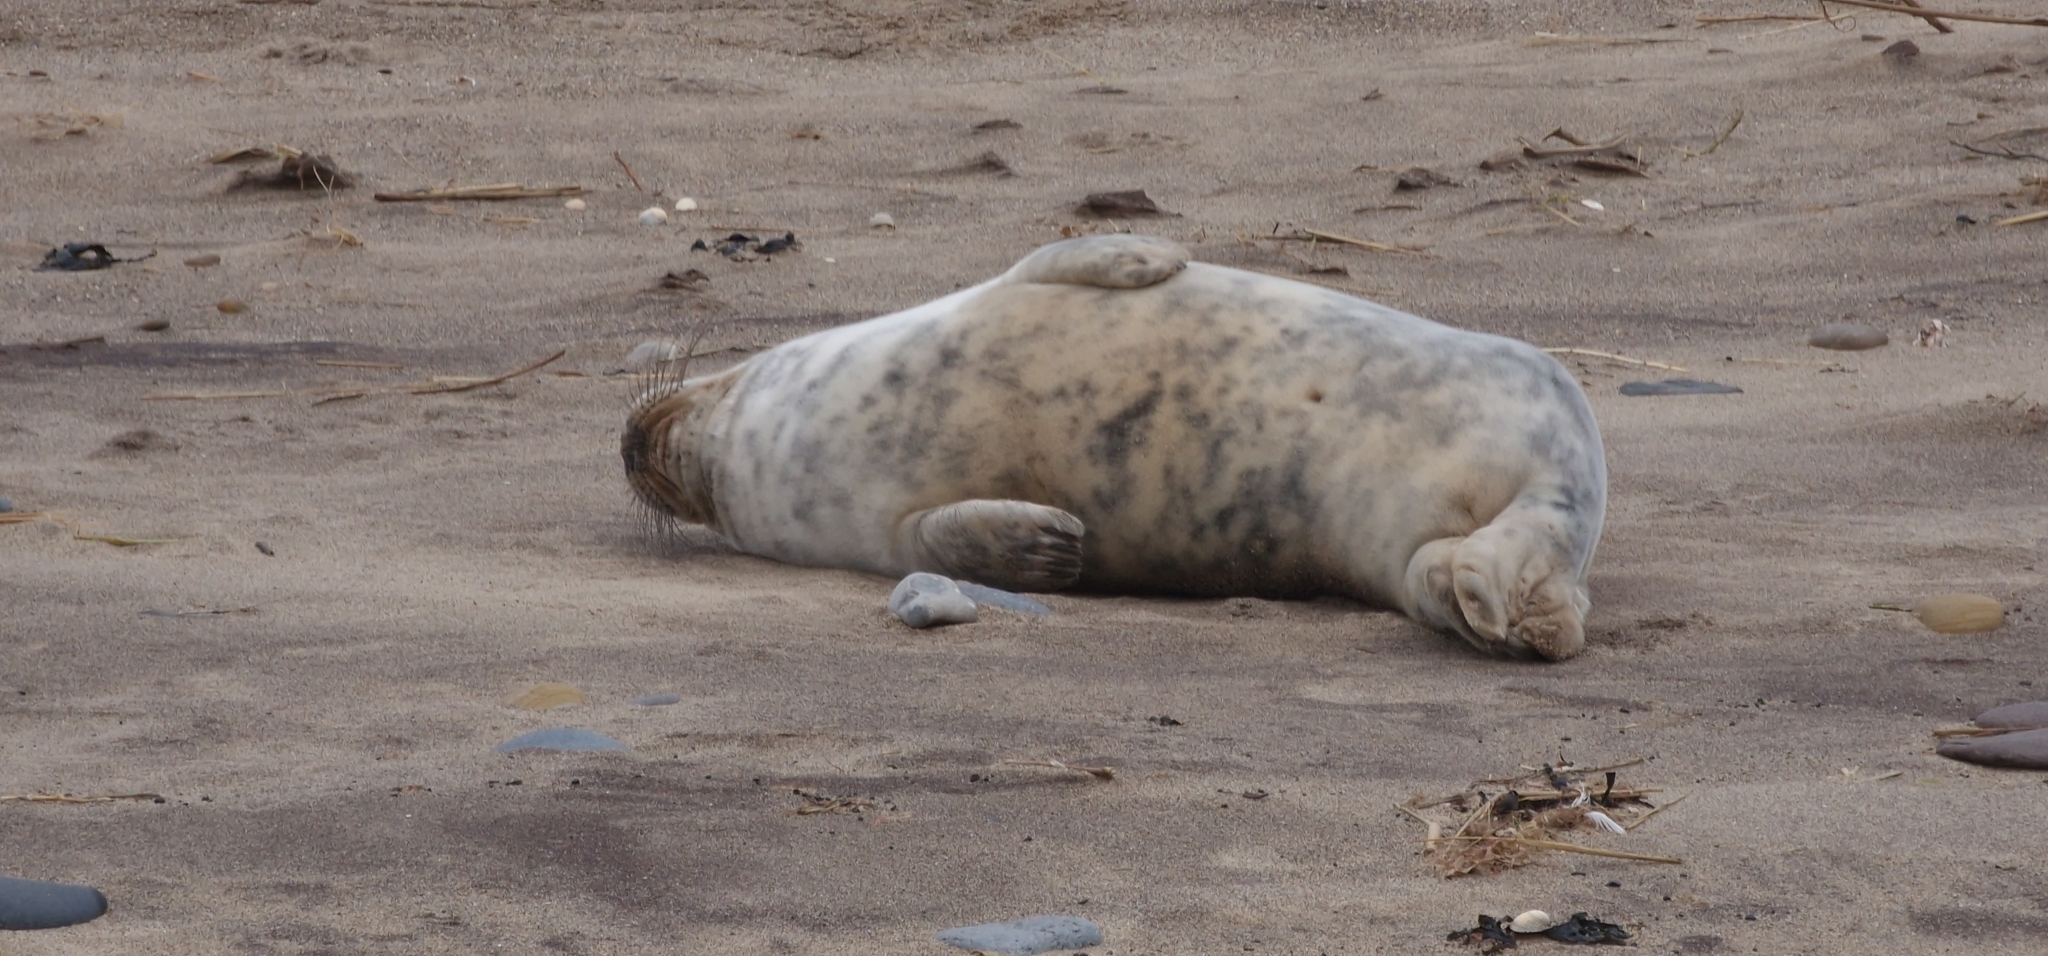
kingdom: Animalia
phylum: Chordata
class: Mammalia
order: Carnivora
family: Phocidae
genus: Halichoerus
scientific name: Halichoerus grypus
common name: Grey seal
